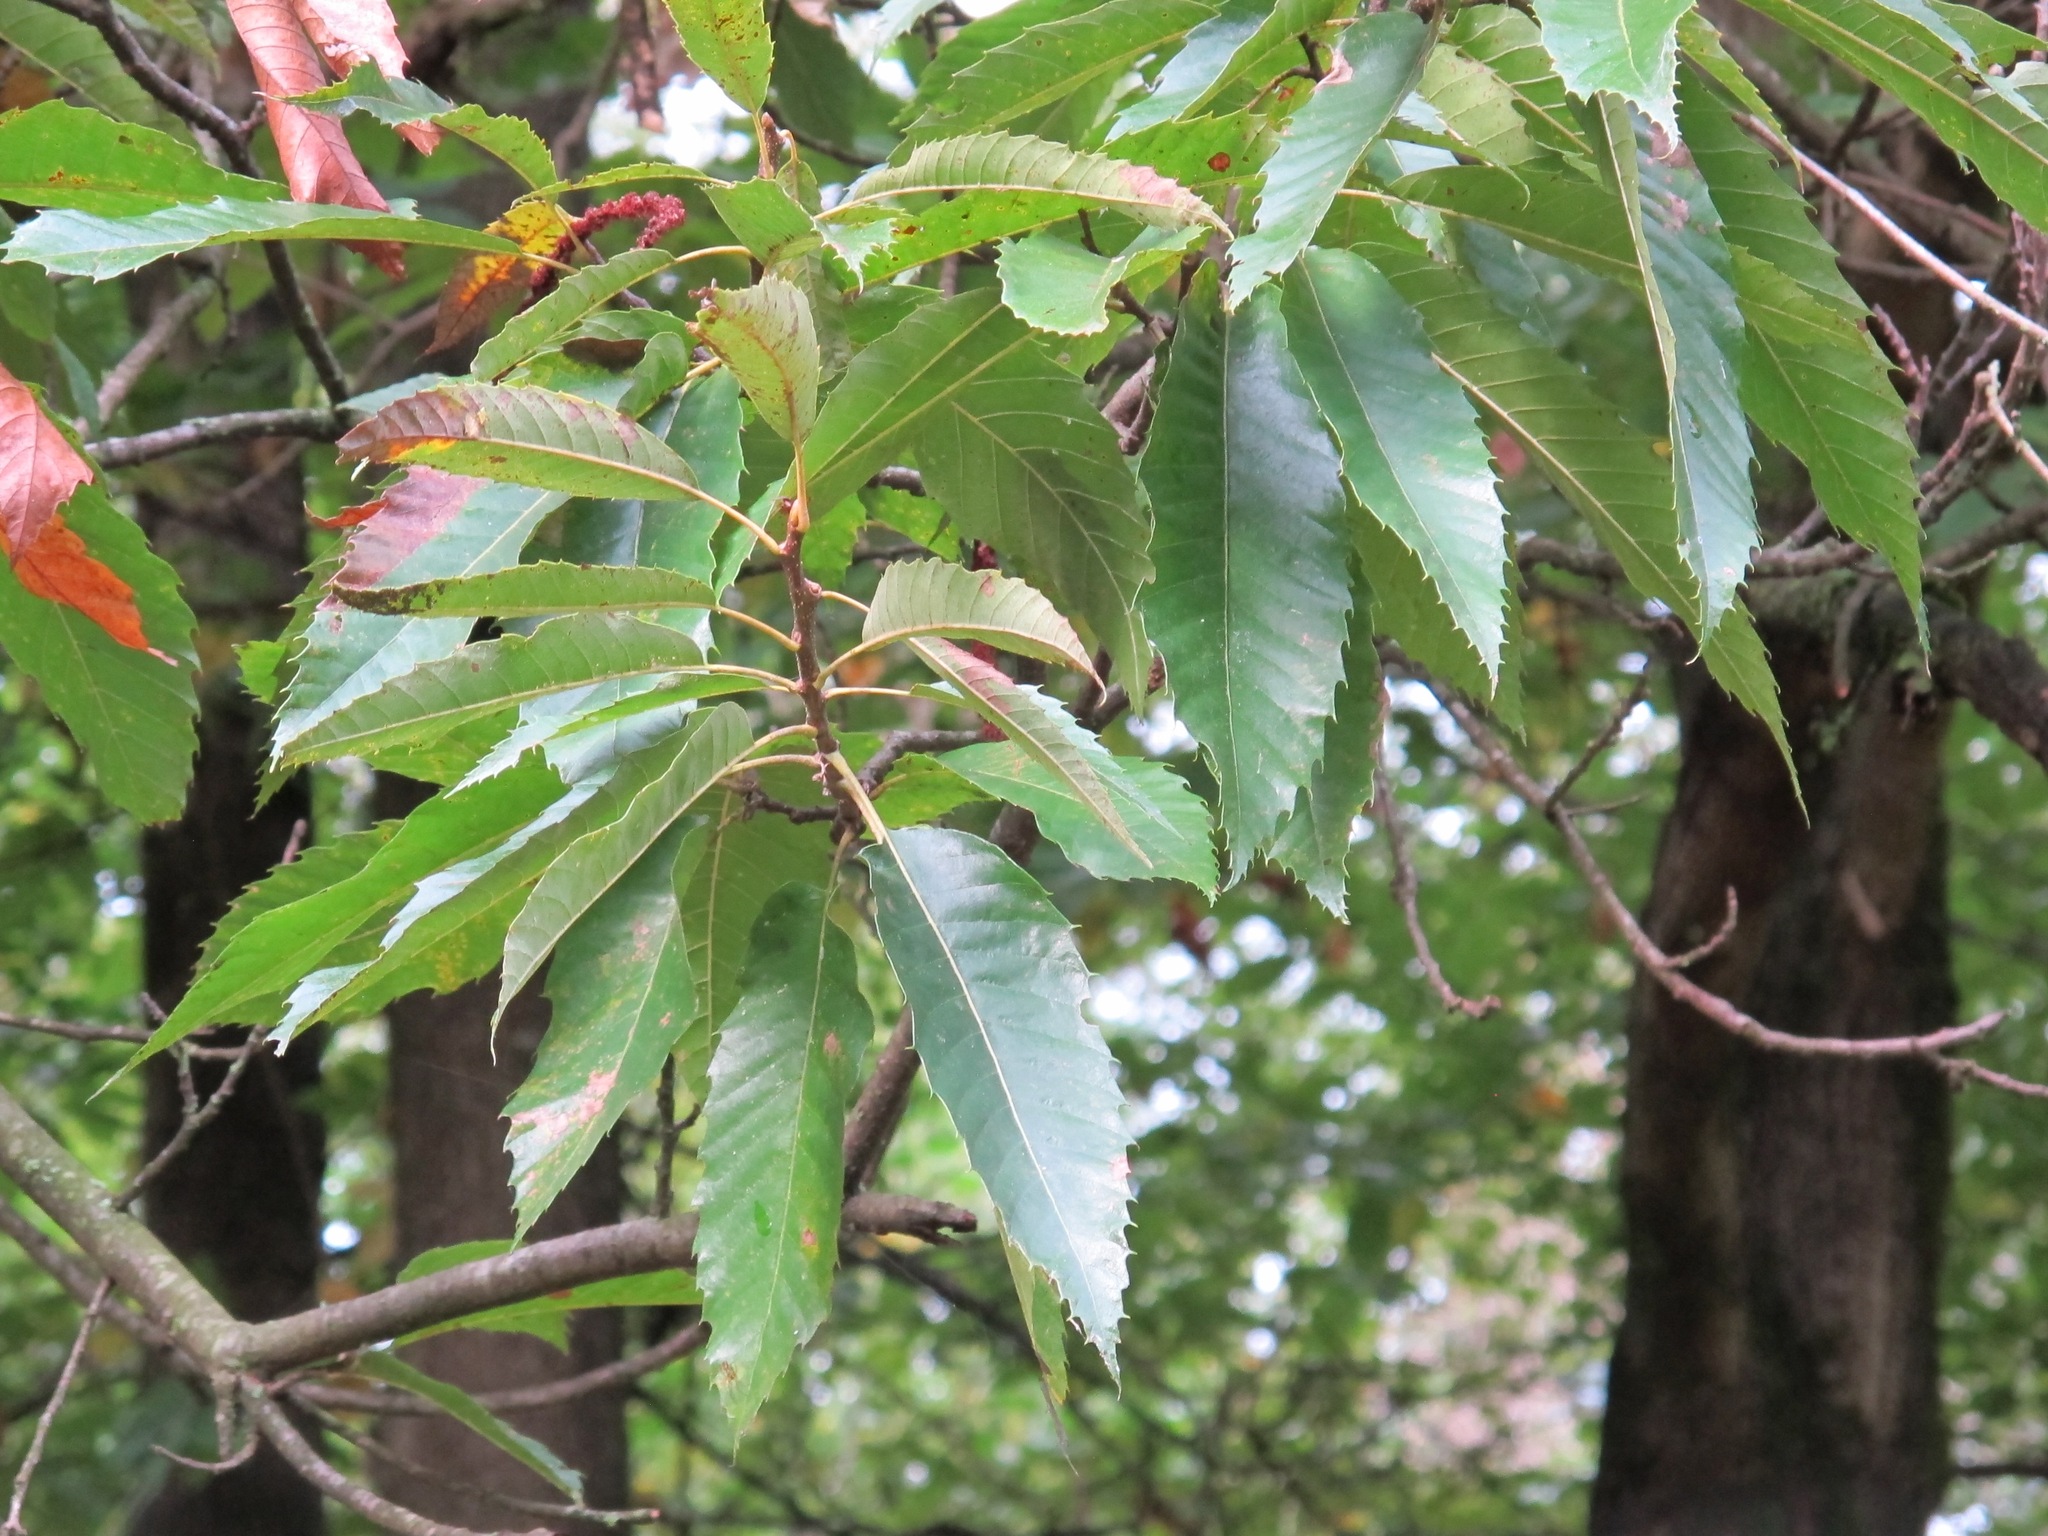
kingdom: Plantae
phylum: Tracheophyta
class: Magnoliopsida
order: Fagales
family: Fagaceae
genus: Castanea
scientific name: Castanea sativa
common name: Sweet chestnut
